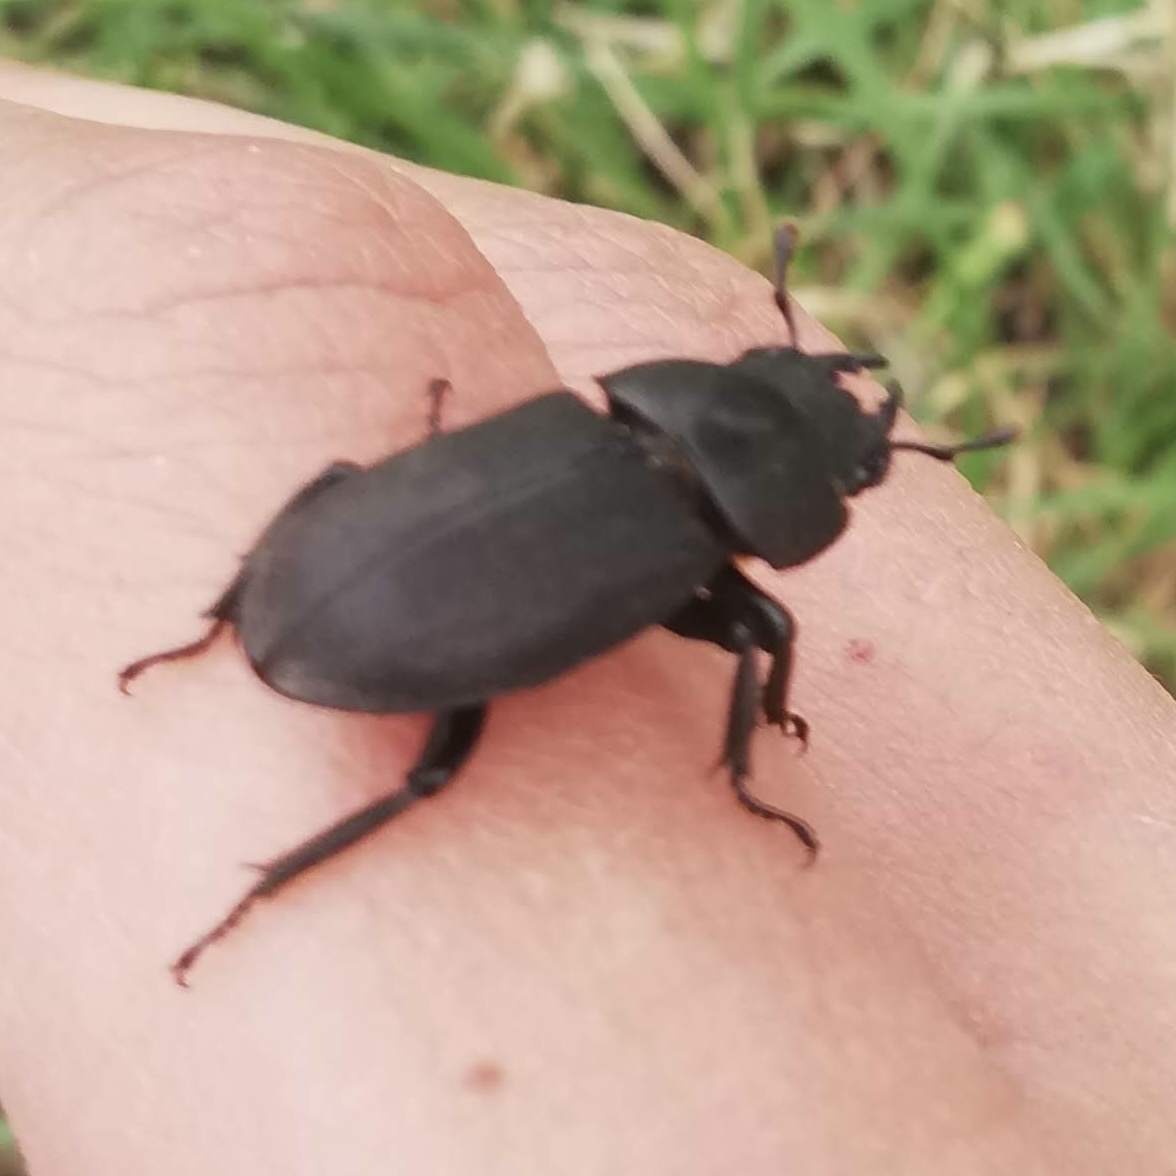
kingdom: Animalia
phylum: Arthropoda
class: Insecta
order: Coleoptera
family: Lucanidae
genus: Dorcus
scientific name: Dorcus parallelipipedus
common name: Lesser stag beetle
